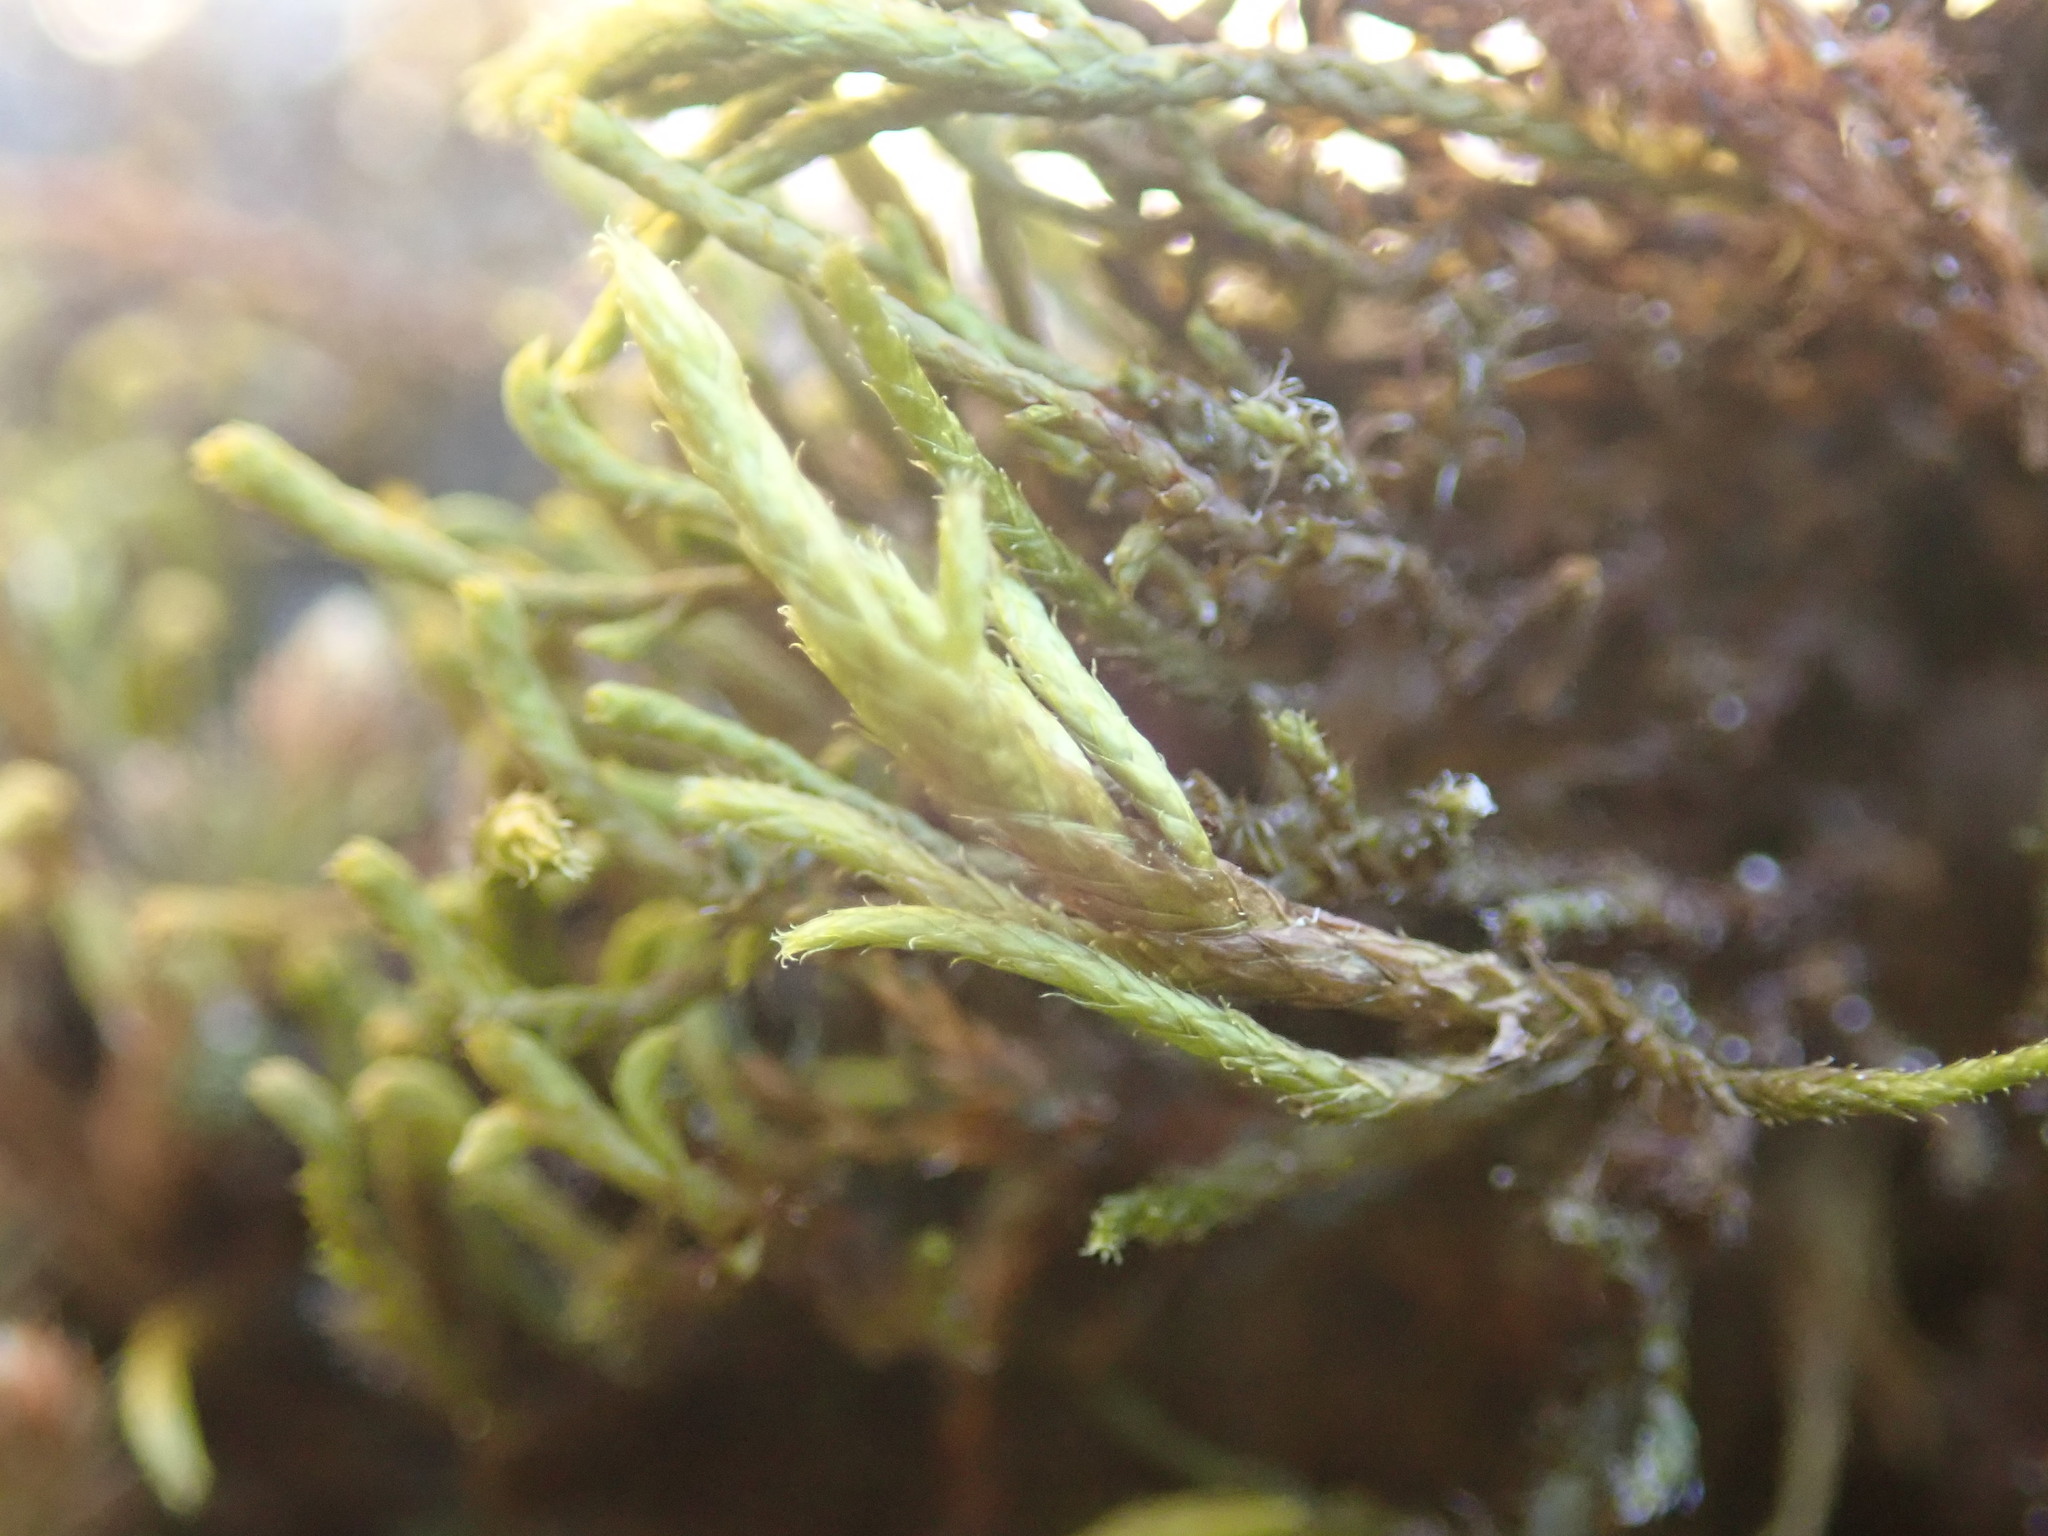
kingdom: Plantae
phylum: Bryophyta
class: Bryopsida
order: Hypnales
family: Antitrichiaceae
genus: Antitrichia
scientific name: Antitrichia californica
